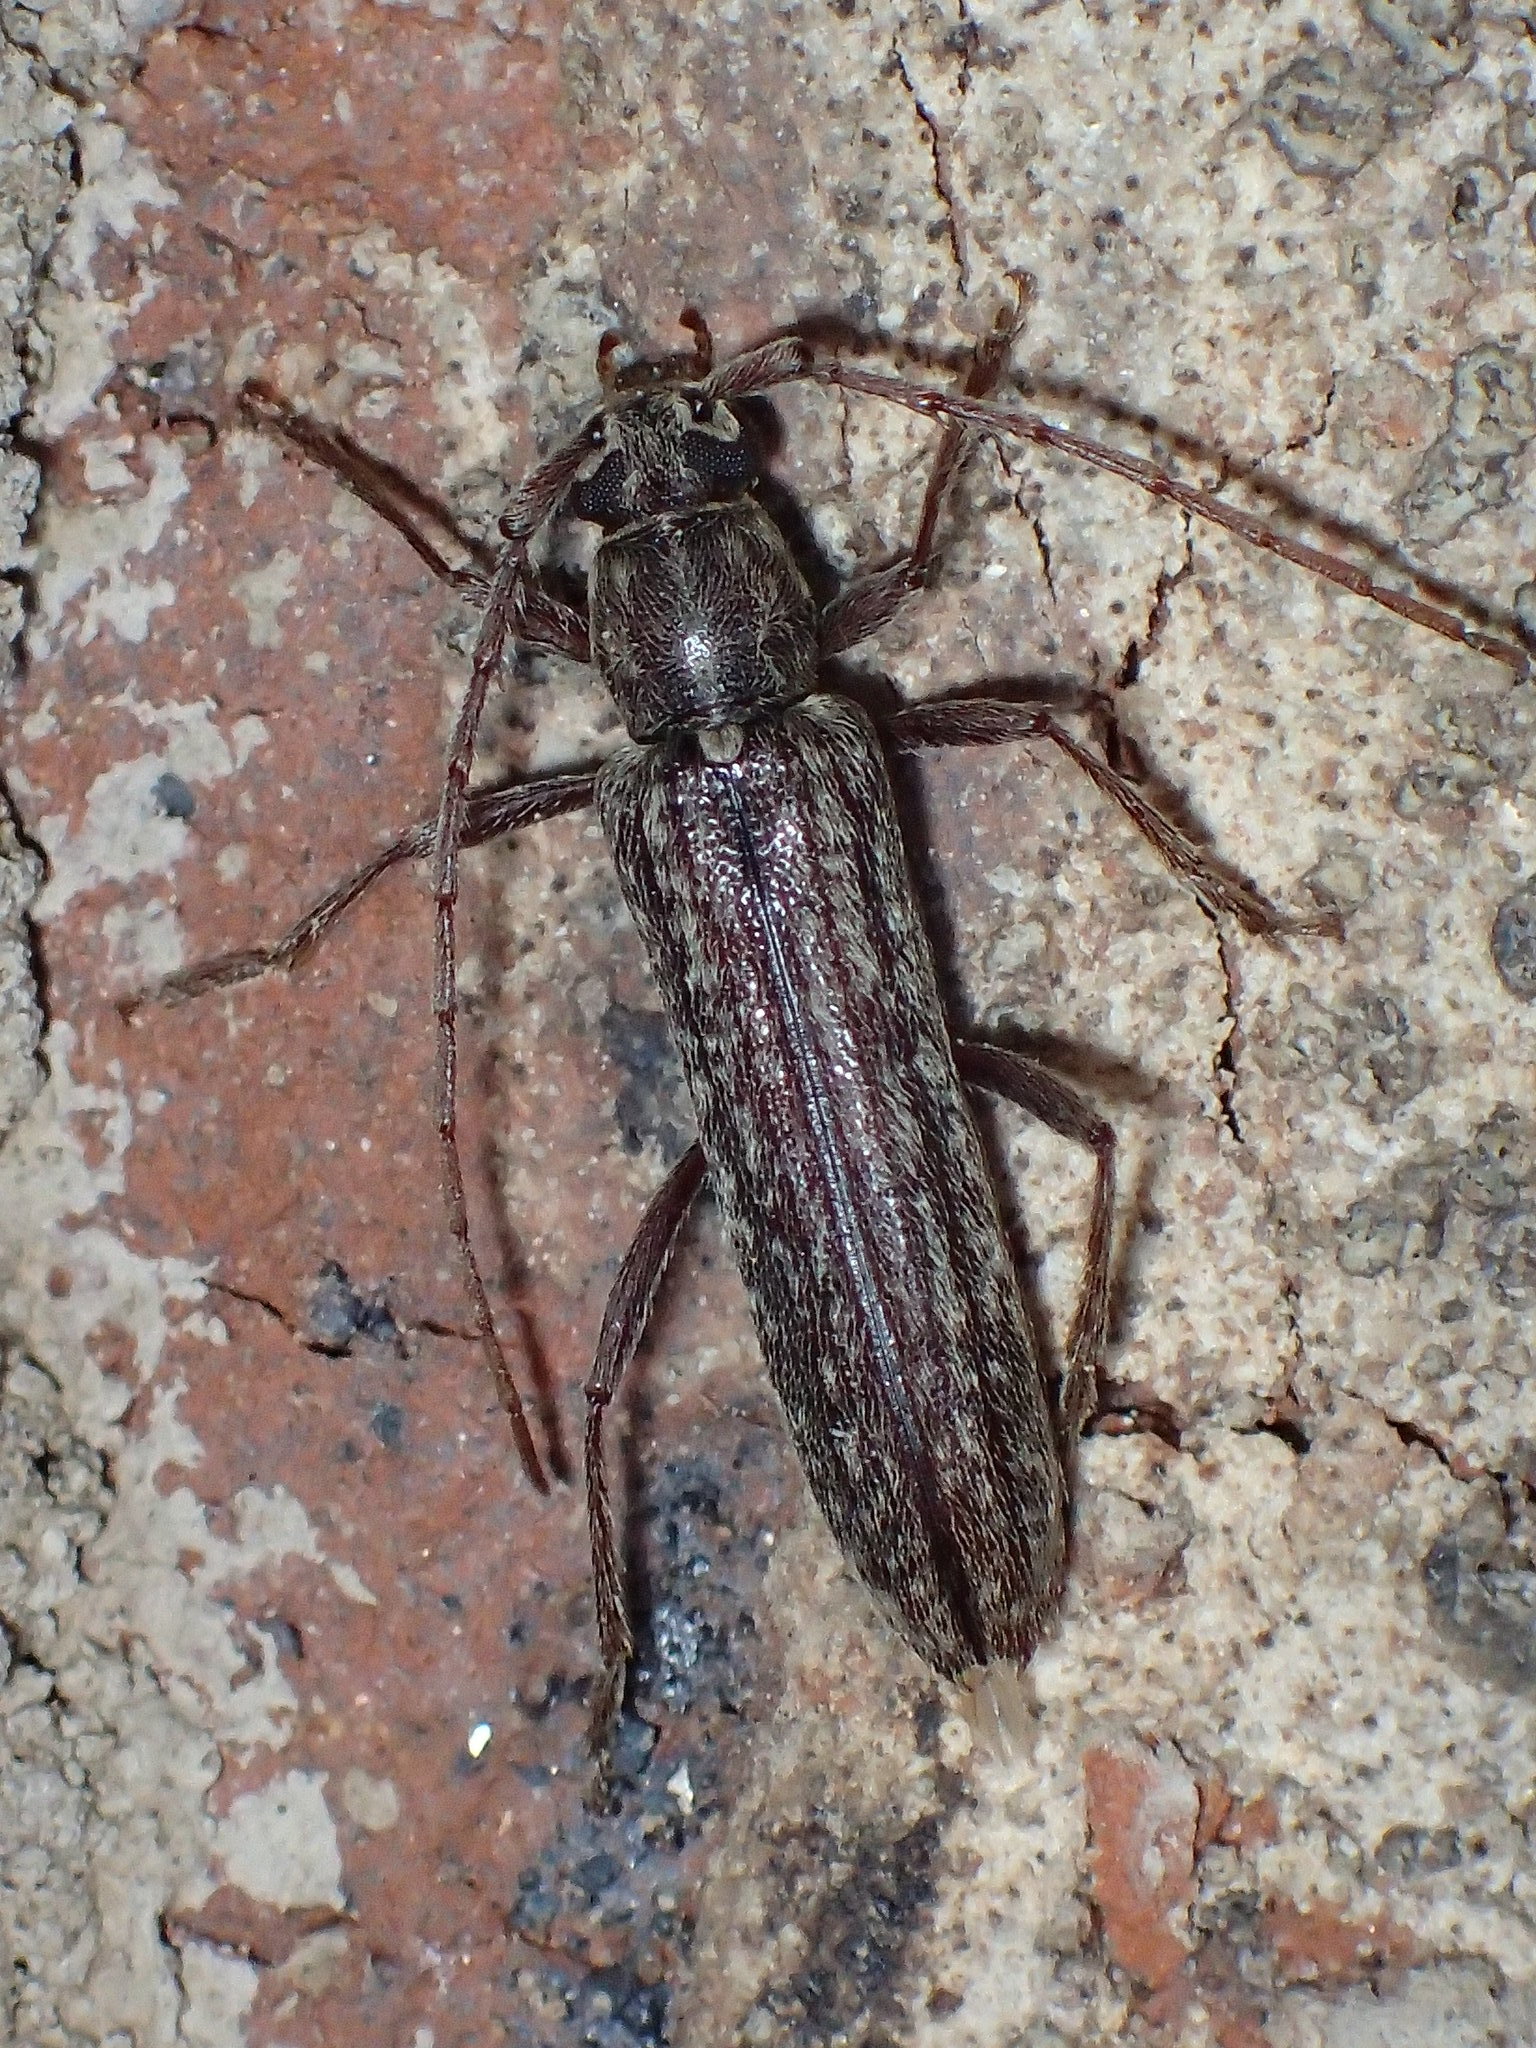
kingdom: Animalia
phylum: Arthropoda
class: Insecta
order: Coleoptera
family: Cerambycidae
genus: Anelaphus
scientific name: Anelaphus villosus
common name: Twig pruner
